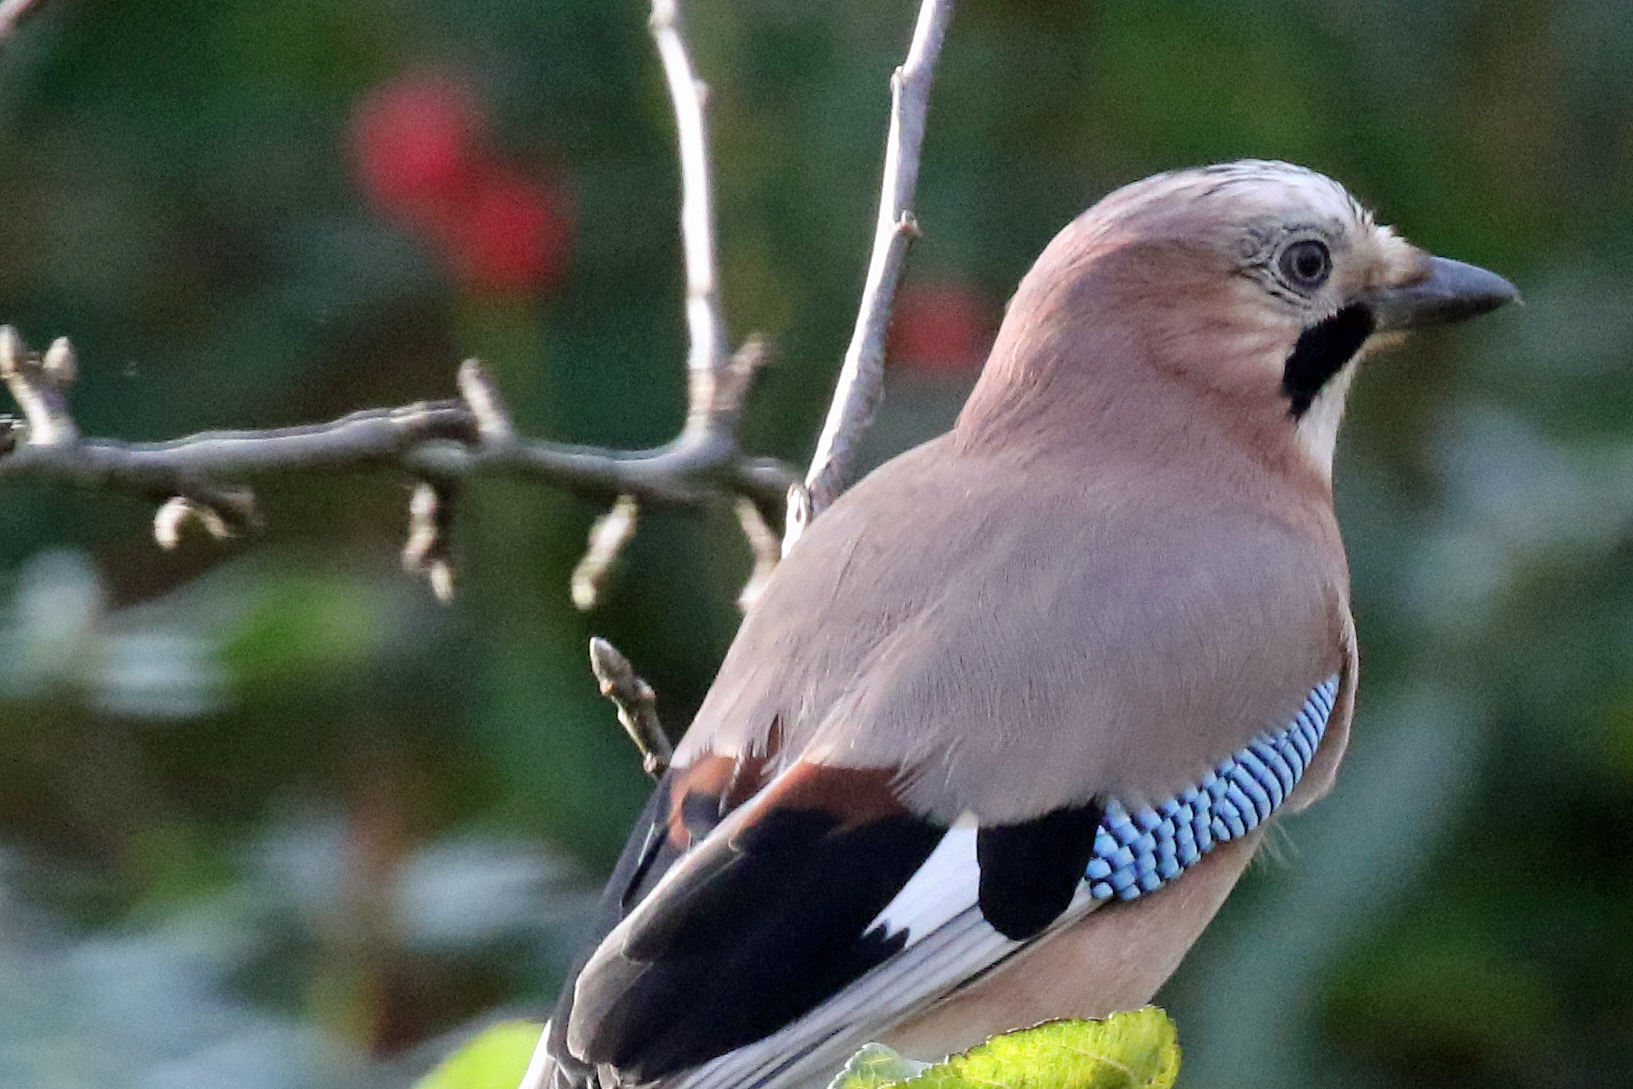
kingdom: Animalia
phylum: Chordata
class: Aves
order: Passeriformes
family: Corvidae
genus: Garrulus
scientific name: Garrulus glandarius
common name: Eurasian jay
